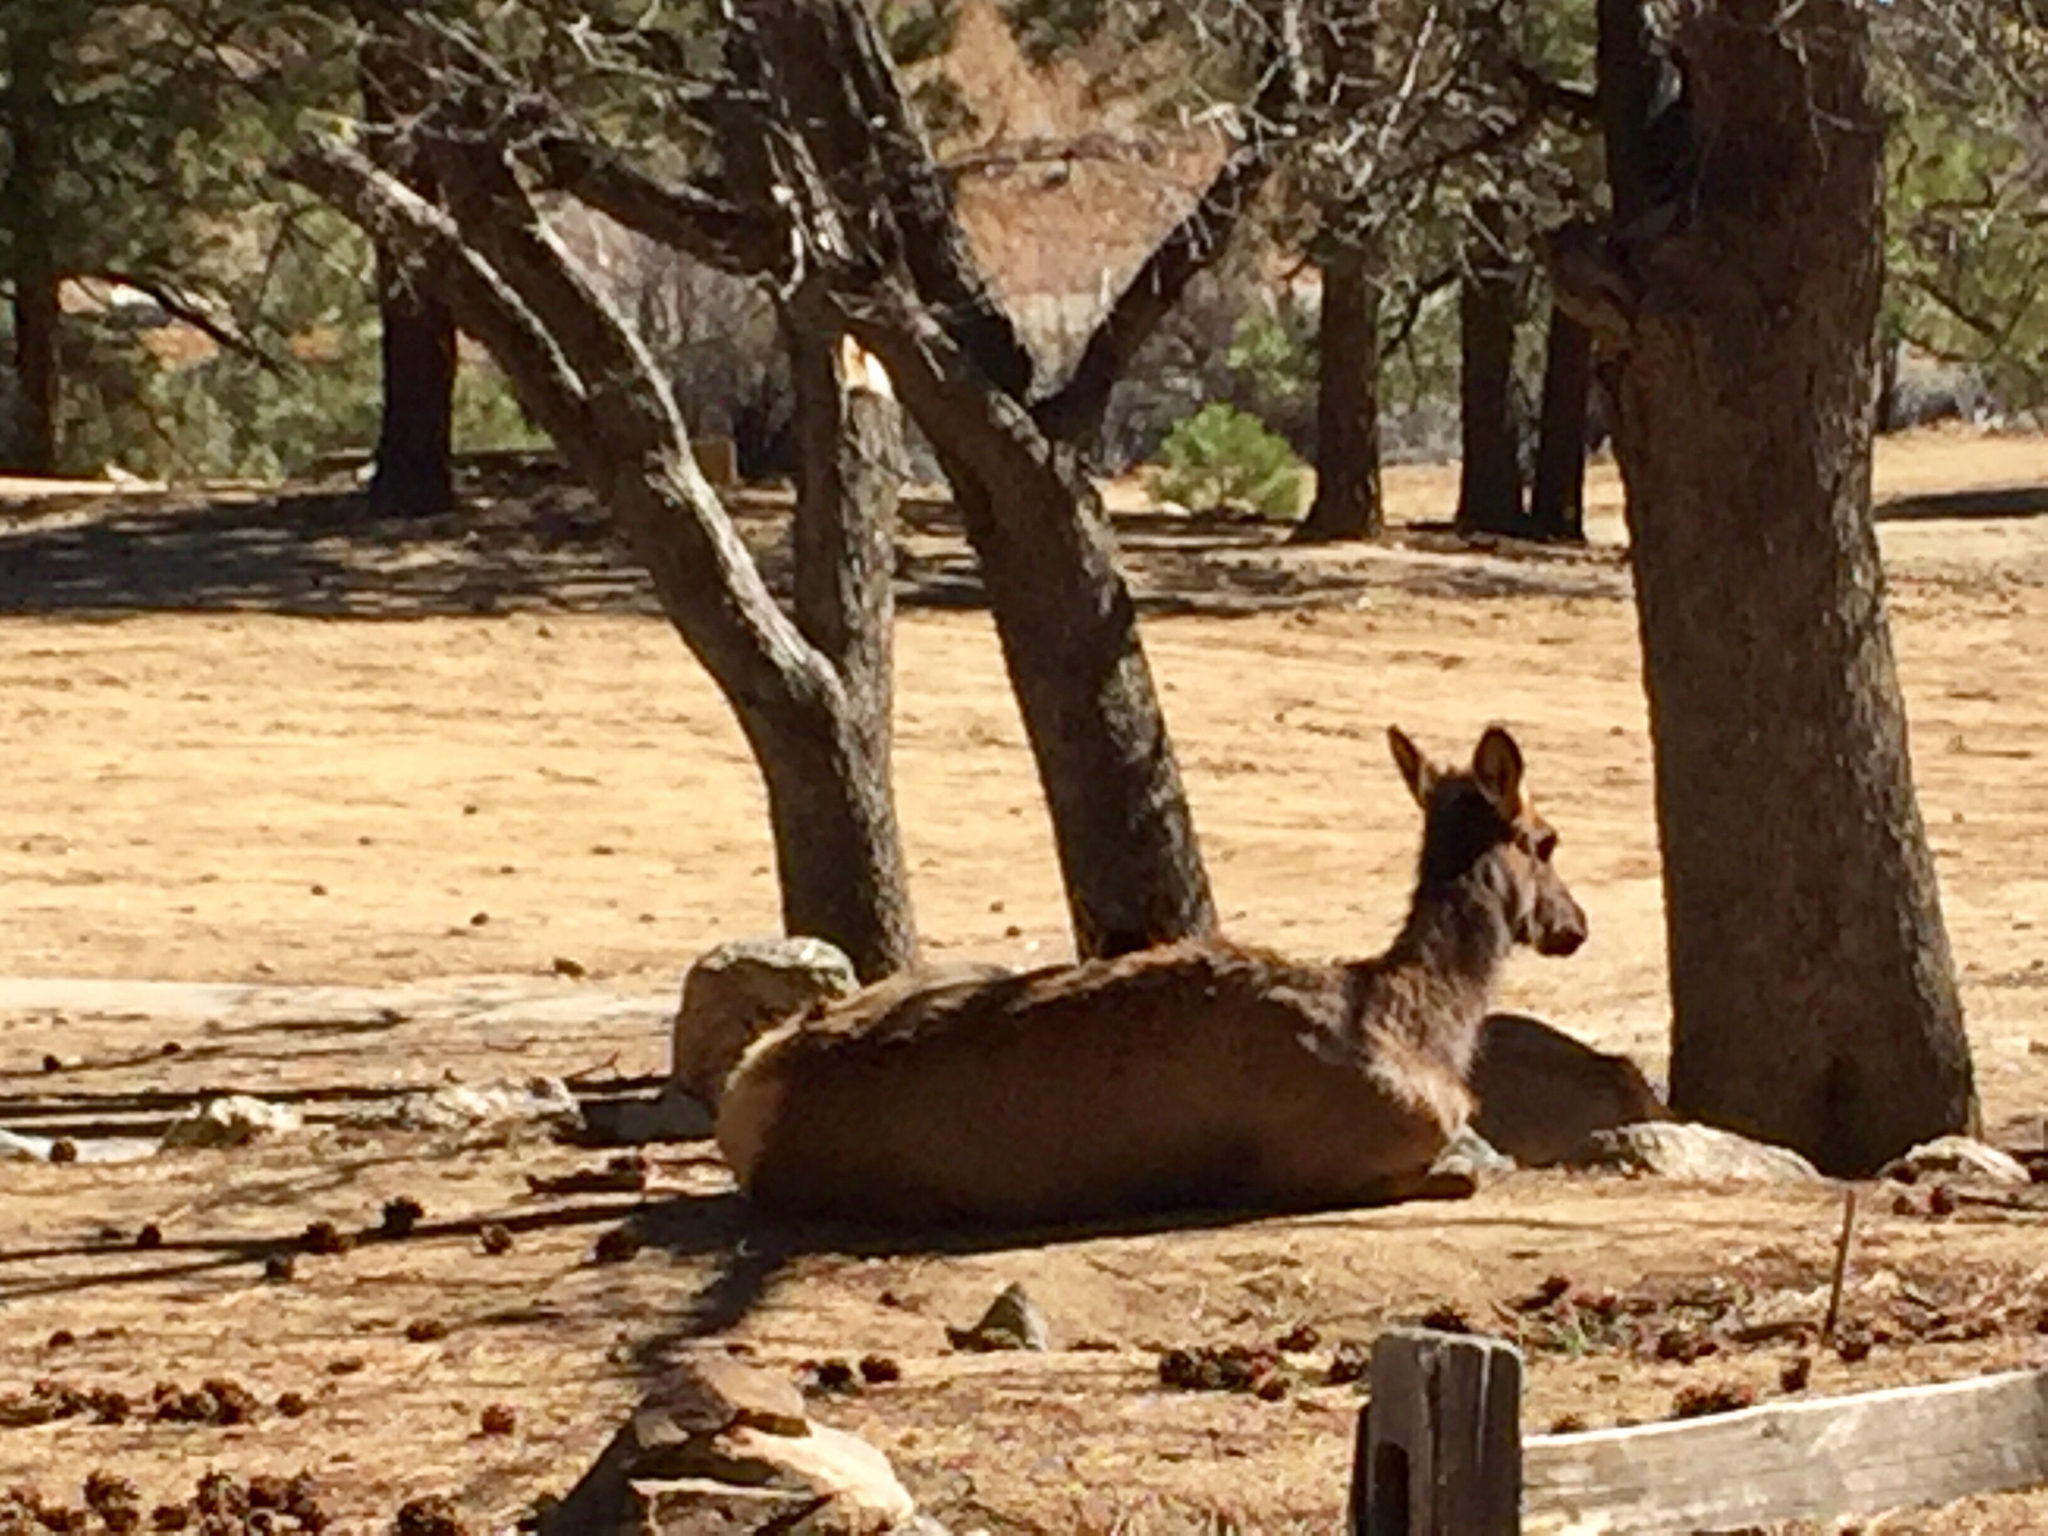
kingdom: Animalia
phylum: Chordata
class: Mammalia
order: Artiodactyla
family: Cervidae
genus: Cervus
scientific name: Cervus elaphus
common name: Red deer
